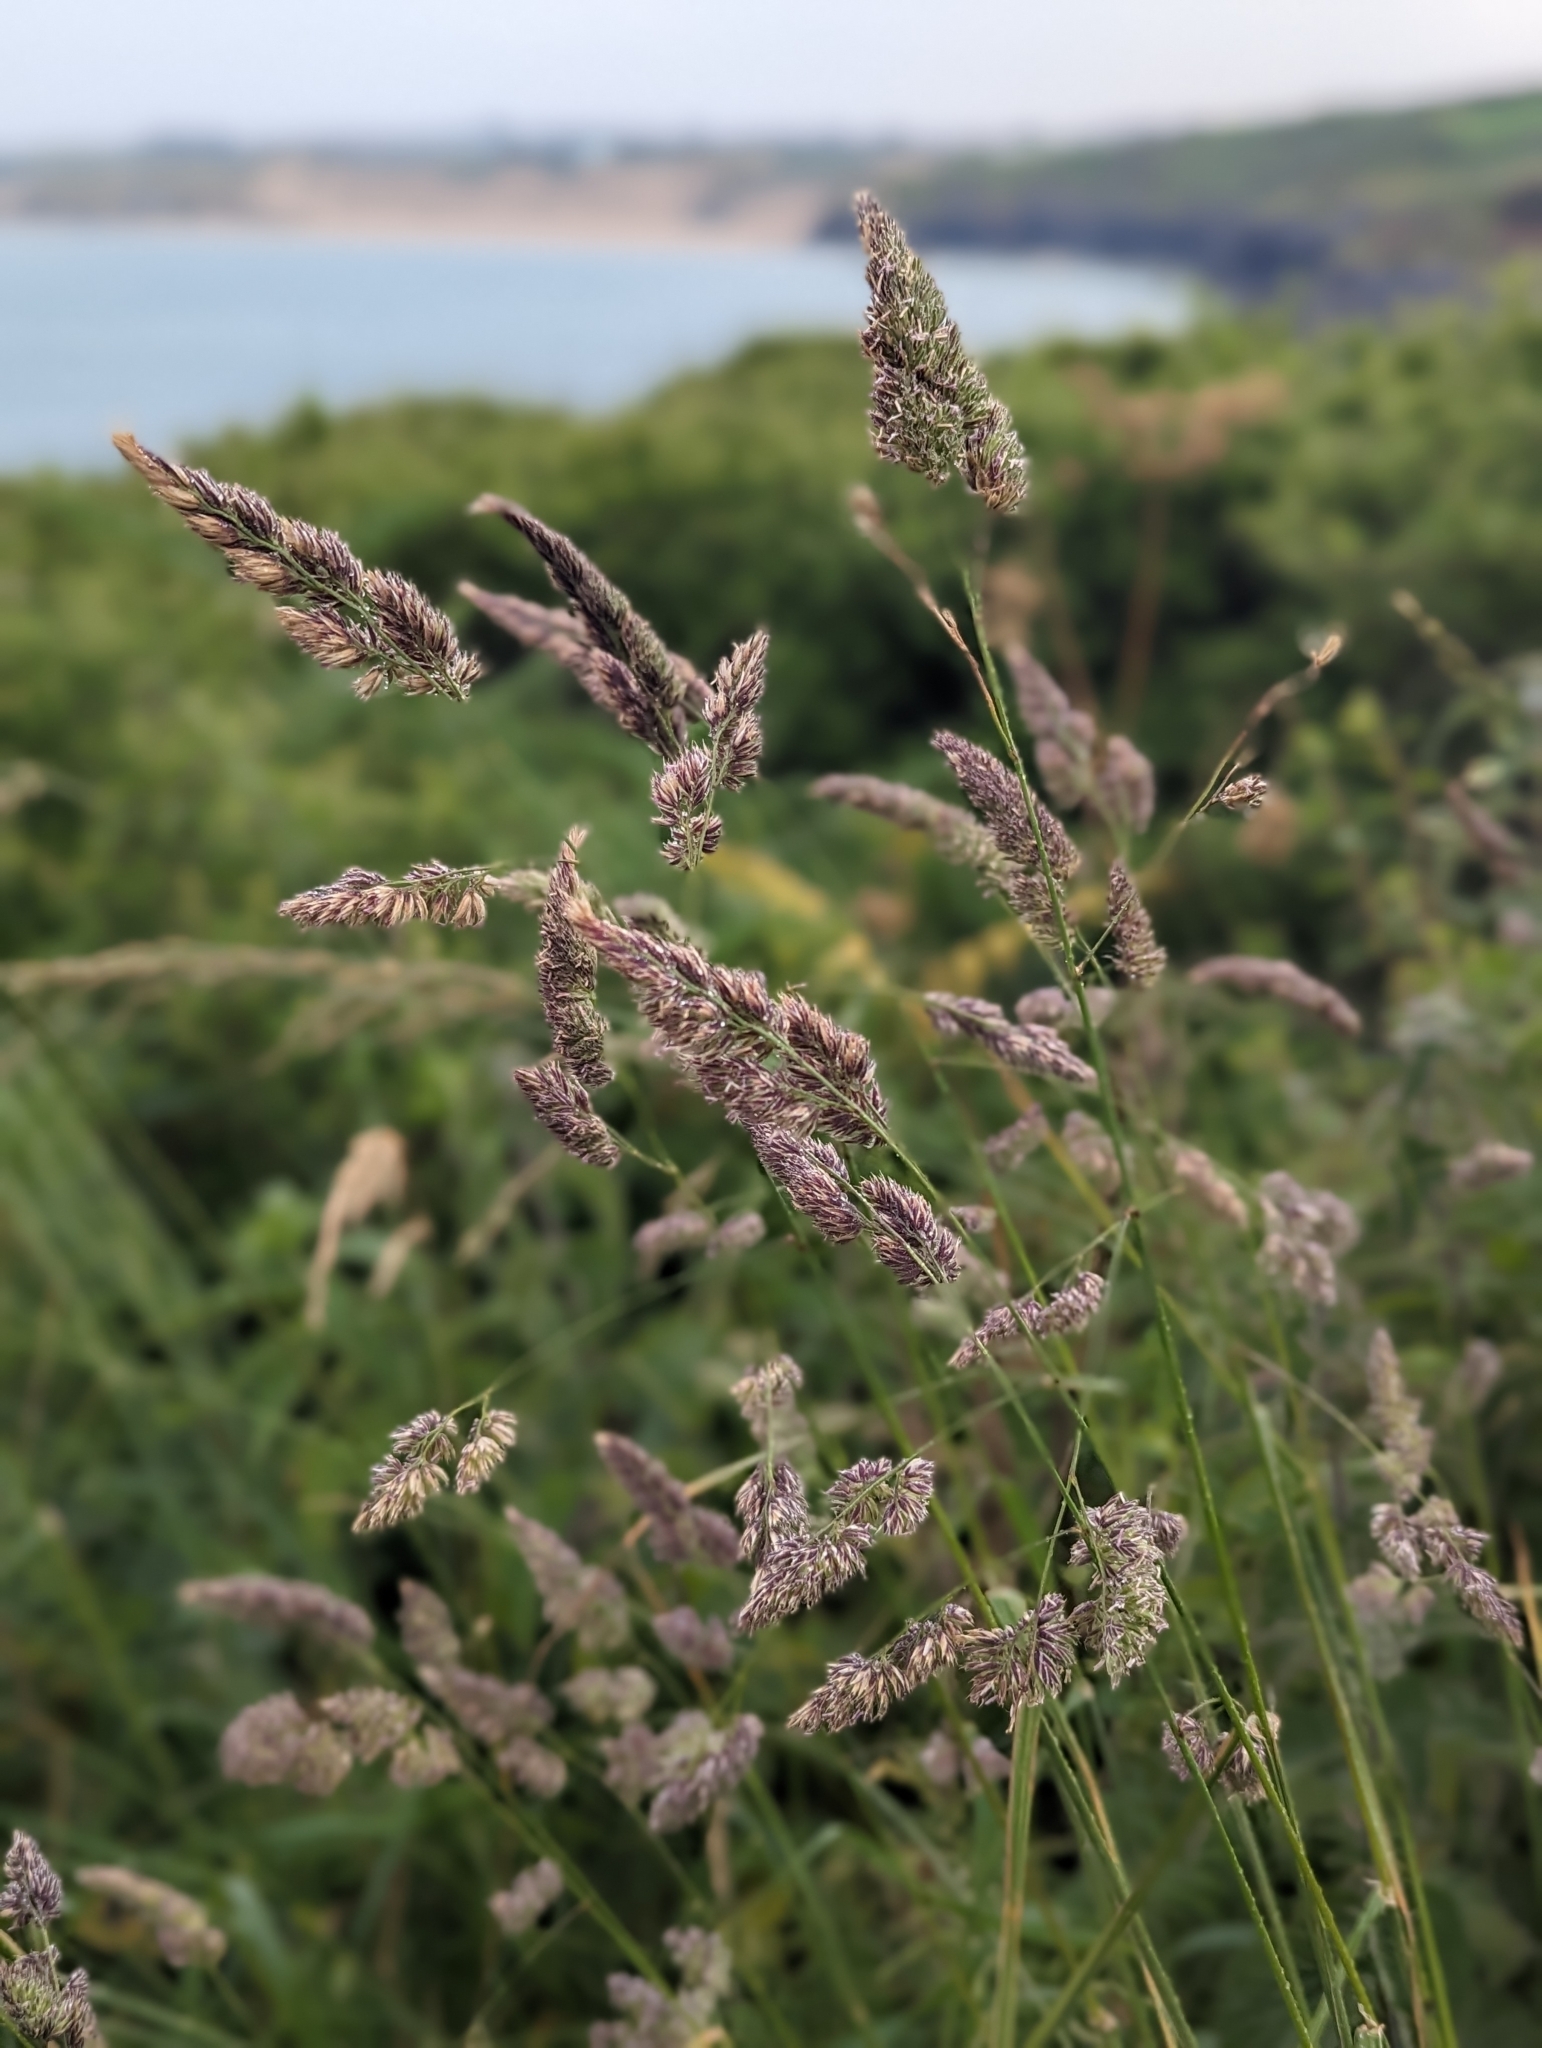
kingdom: Plantae
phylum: Tracheophyta
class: Liliopsida
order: Poales
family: Poaceae
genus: Dactylis
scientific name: Dactylis glomerata
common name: Orchardgrass
